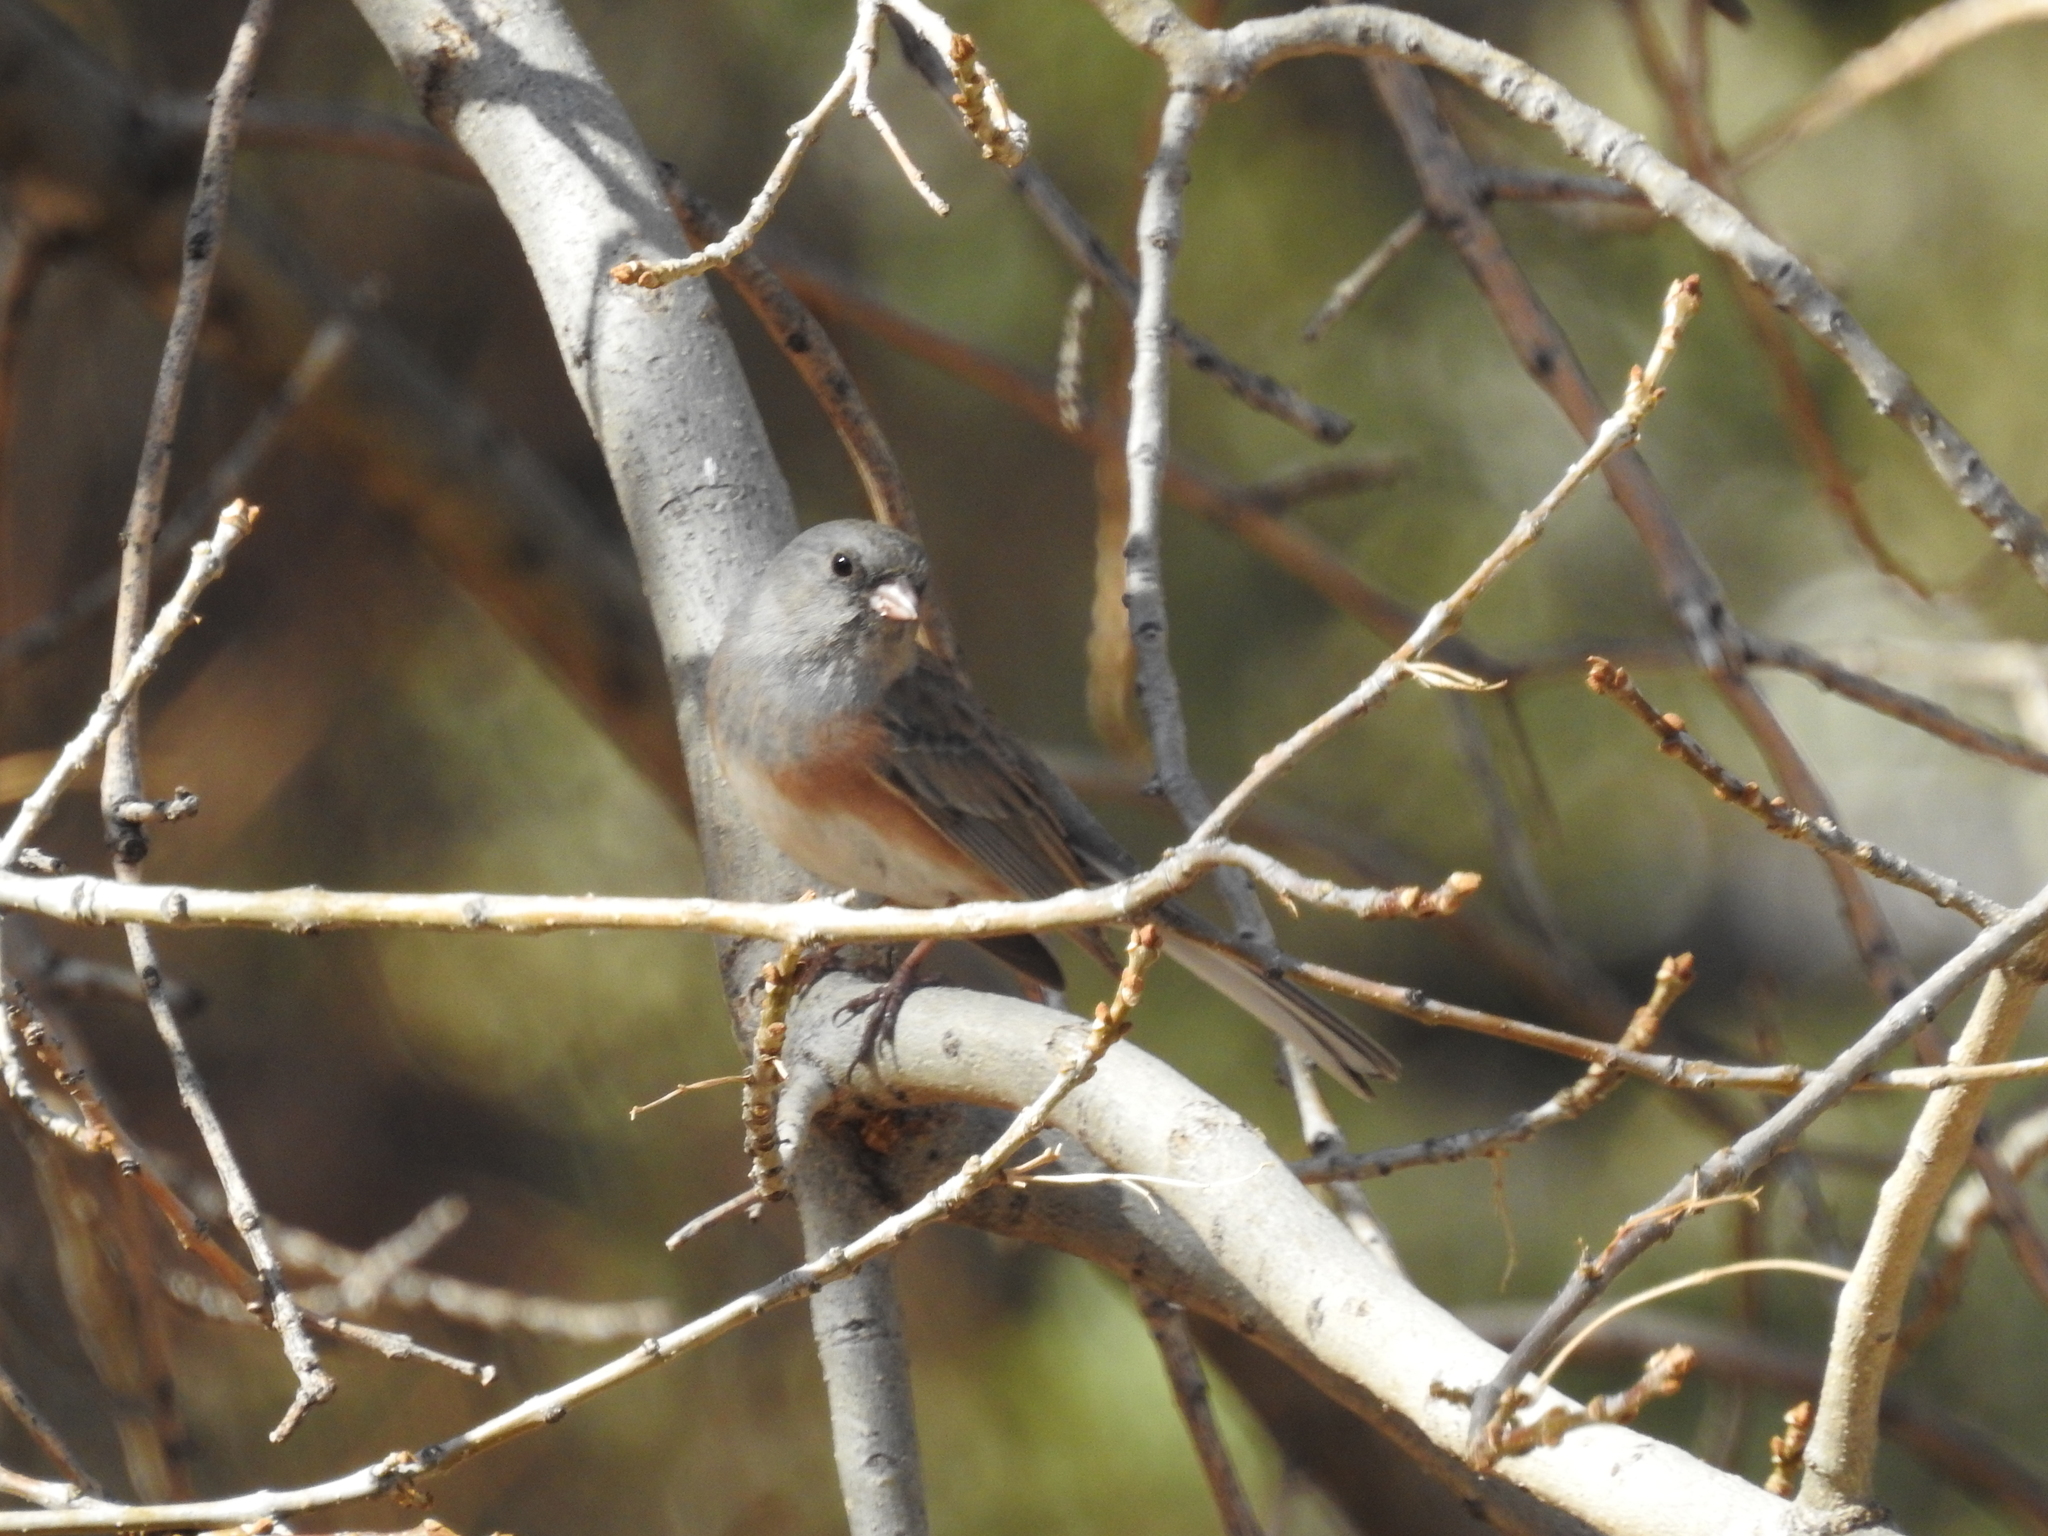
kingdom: Animalia
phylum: Chordata
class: Aves
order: Passeriformes
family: Passerellidae
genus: Junco
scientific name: Junco hyemalis
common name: Dark-eyed junco
